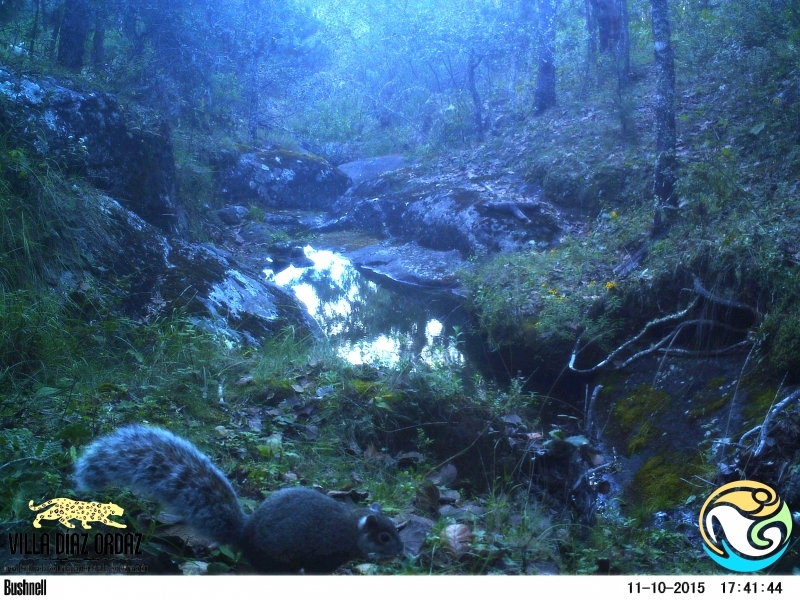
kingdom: Animalia
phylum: Chordata
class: Mammalia
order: Rodentia
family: Sciuridae
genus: Sciurus
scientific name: Sciurus aureogaster
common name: Red-bellied squirrel
